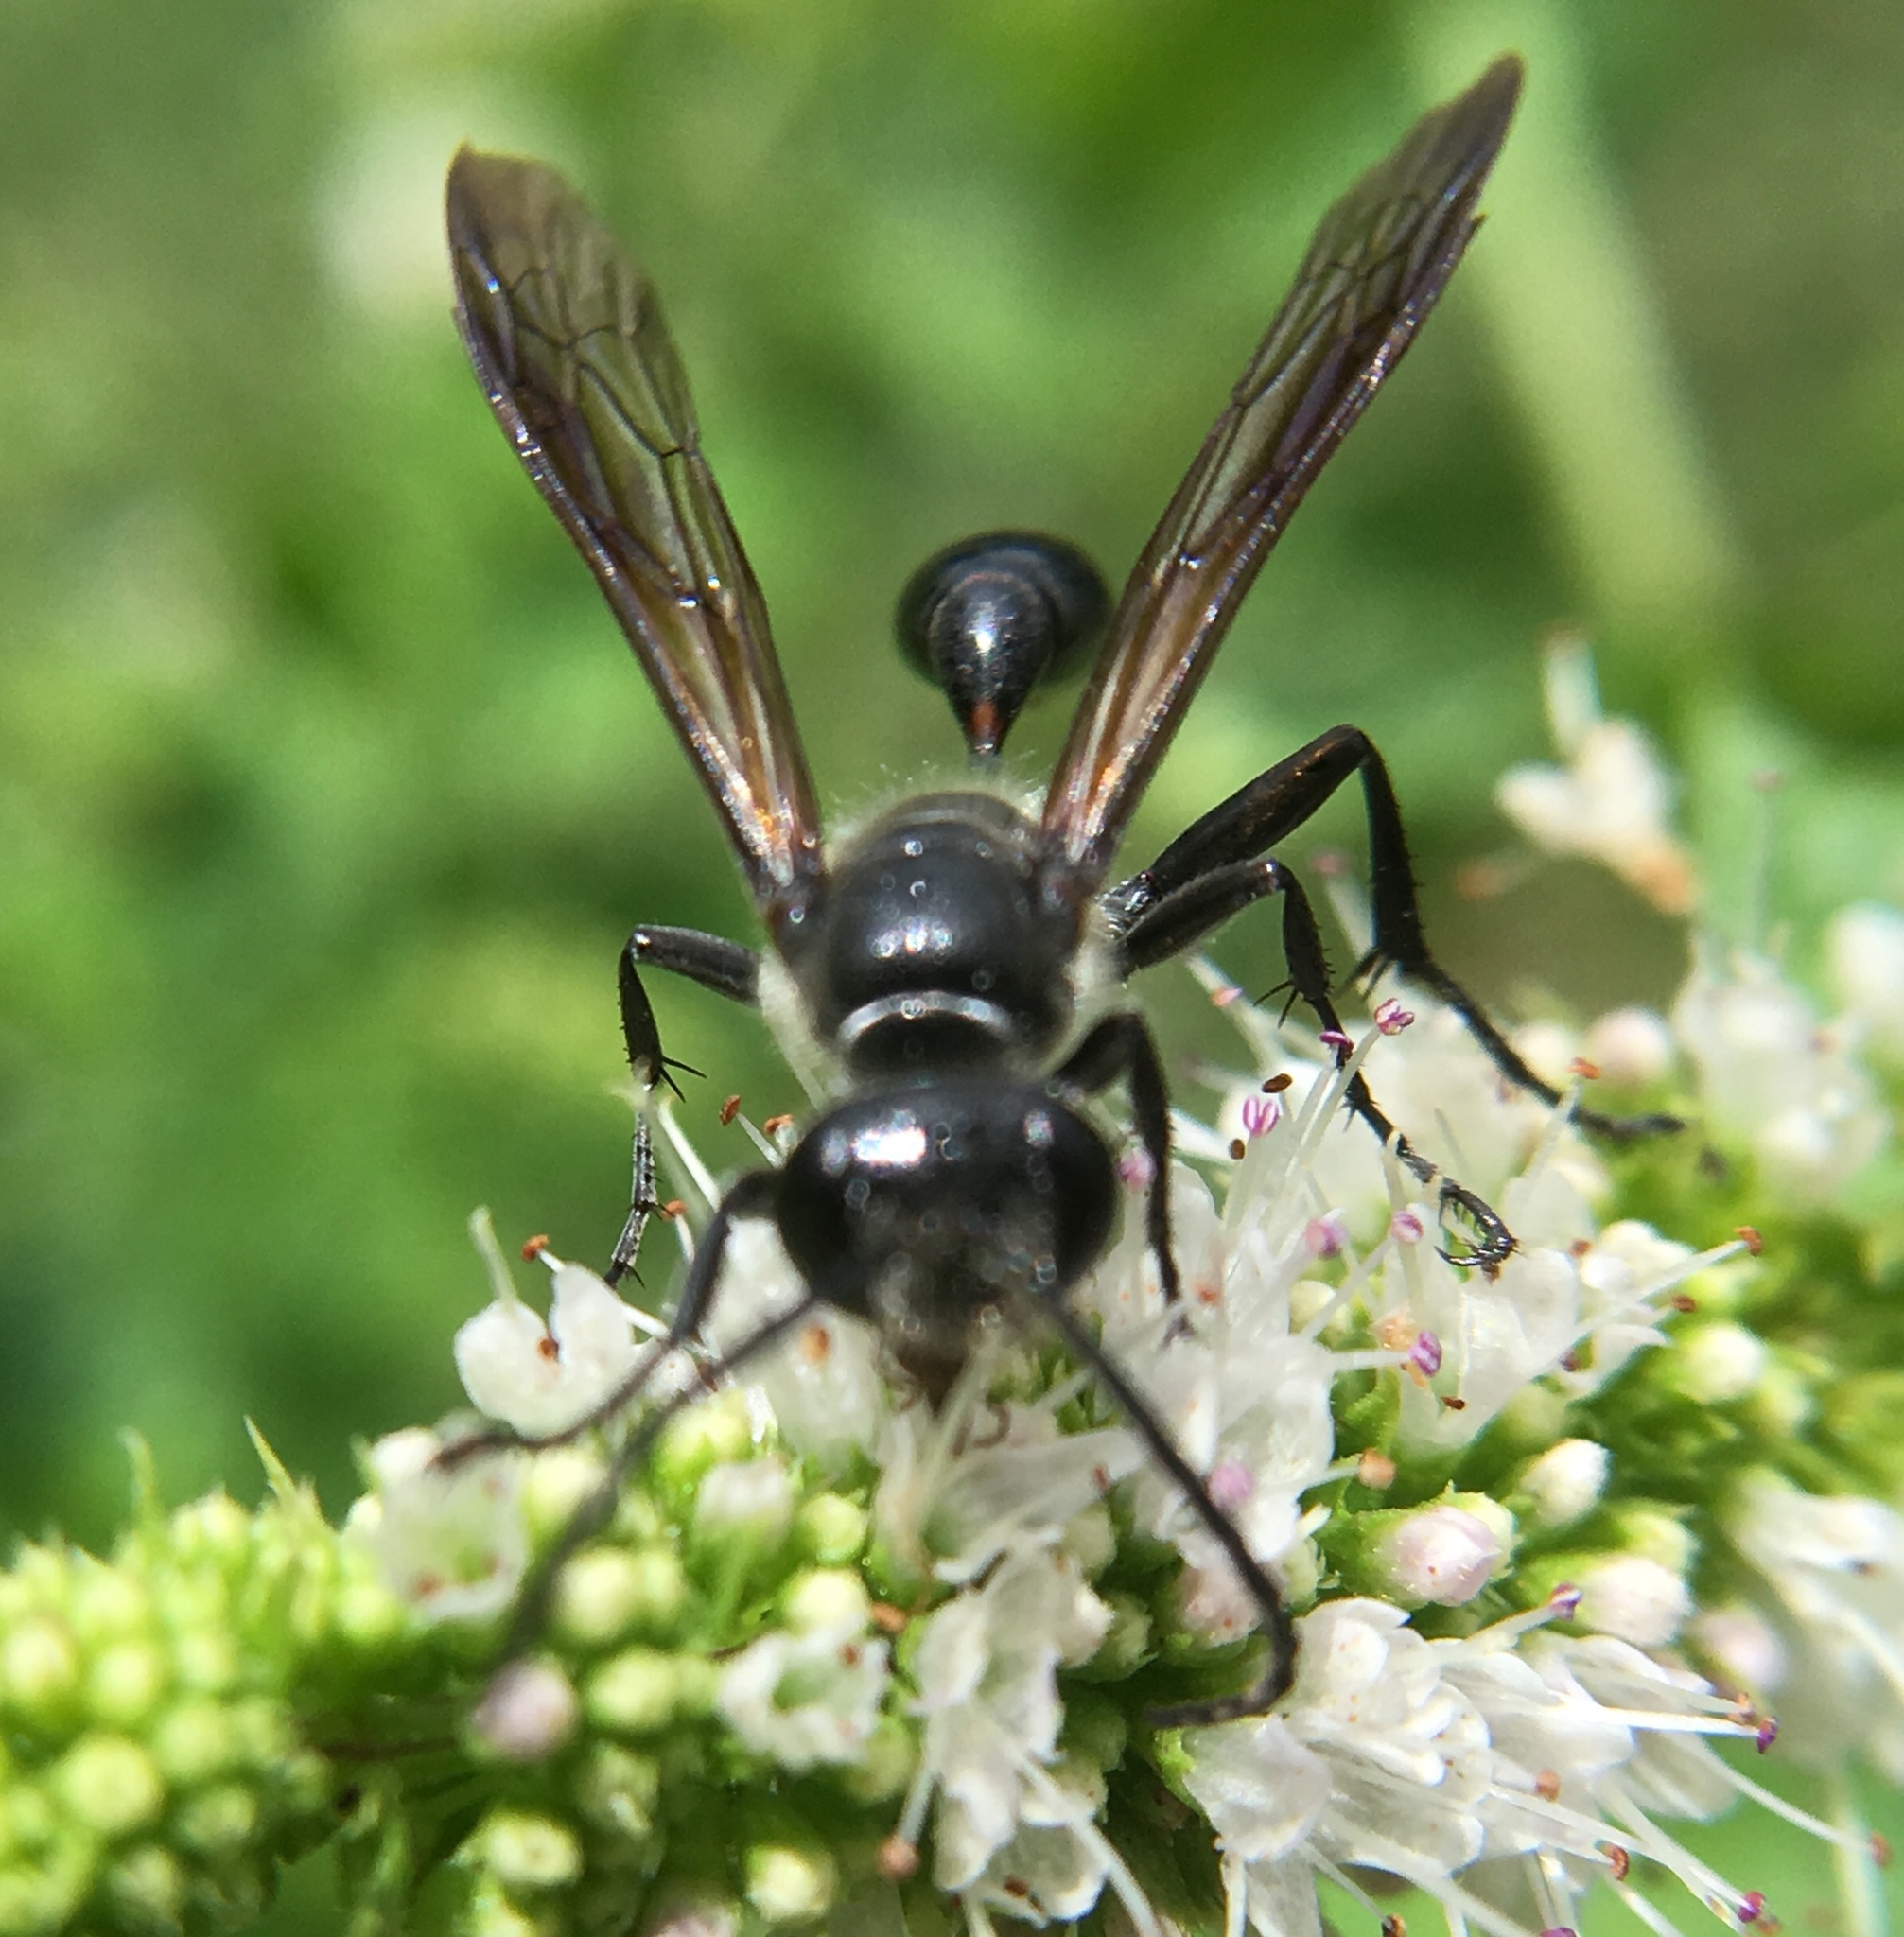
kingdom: Animalia
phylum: Arthropoda
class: Insecta
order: Hymenoptera
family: Sphecidae
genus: Isodontia
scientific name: Isodontia mexicana
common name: Mud dauber
